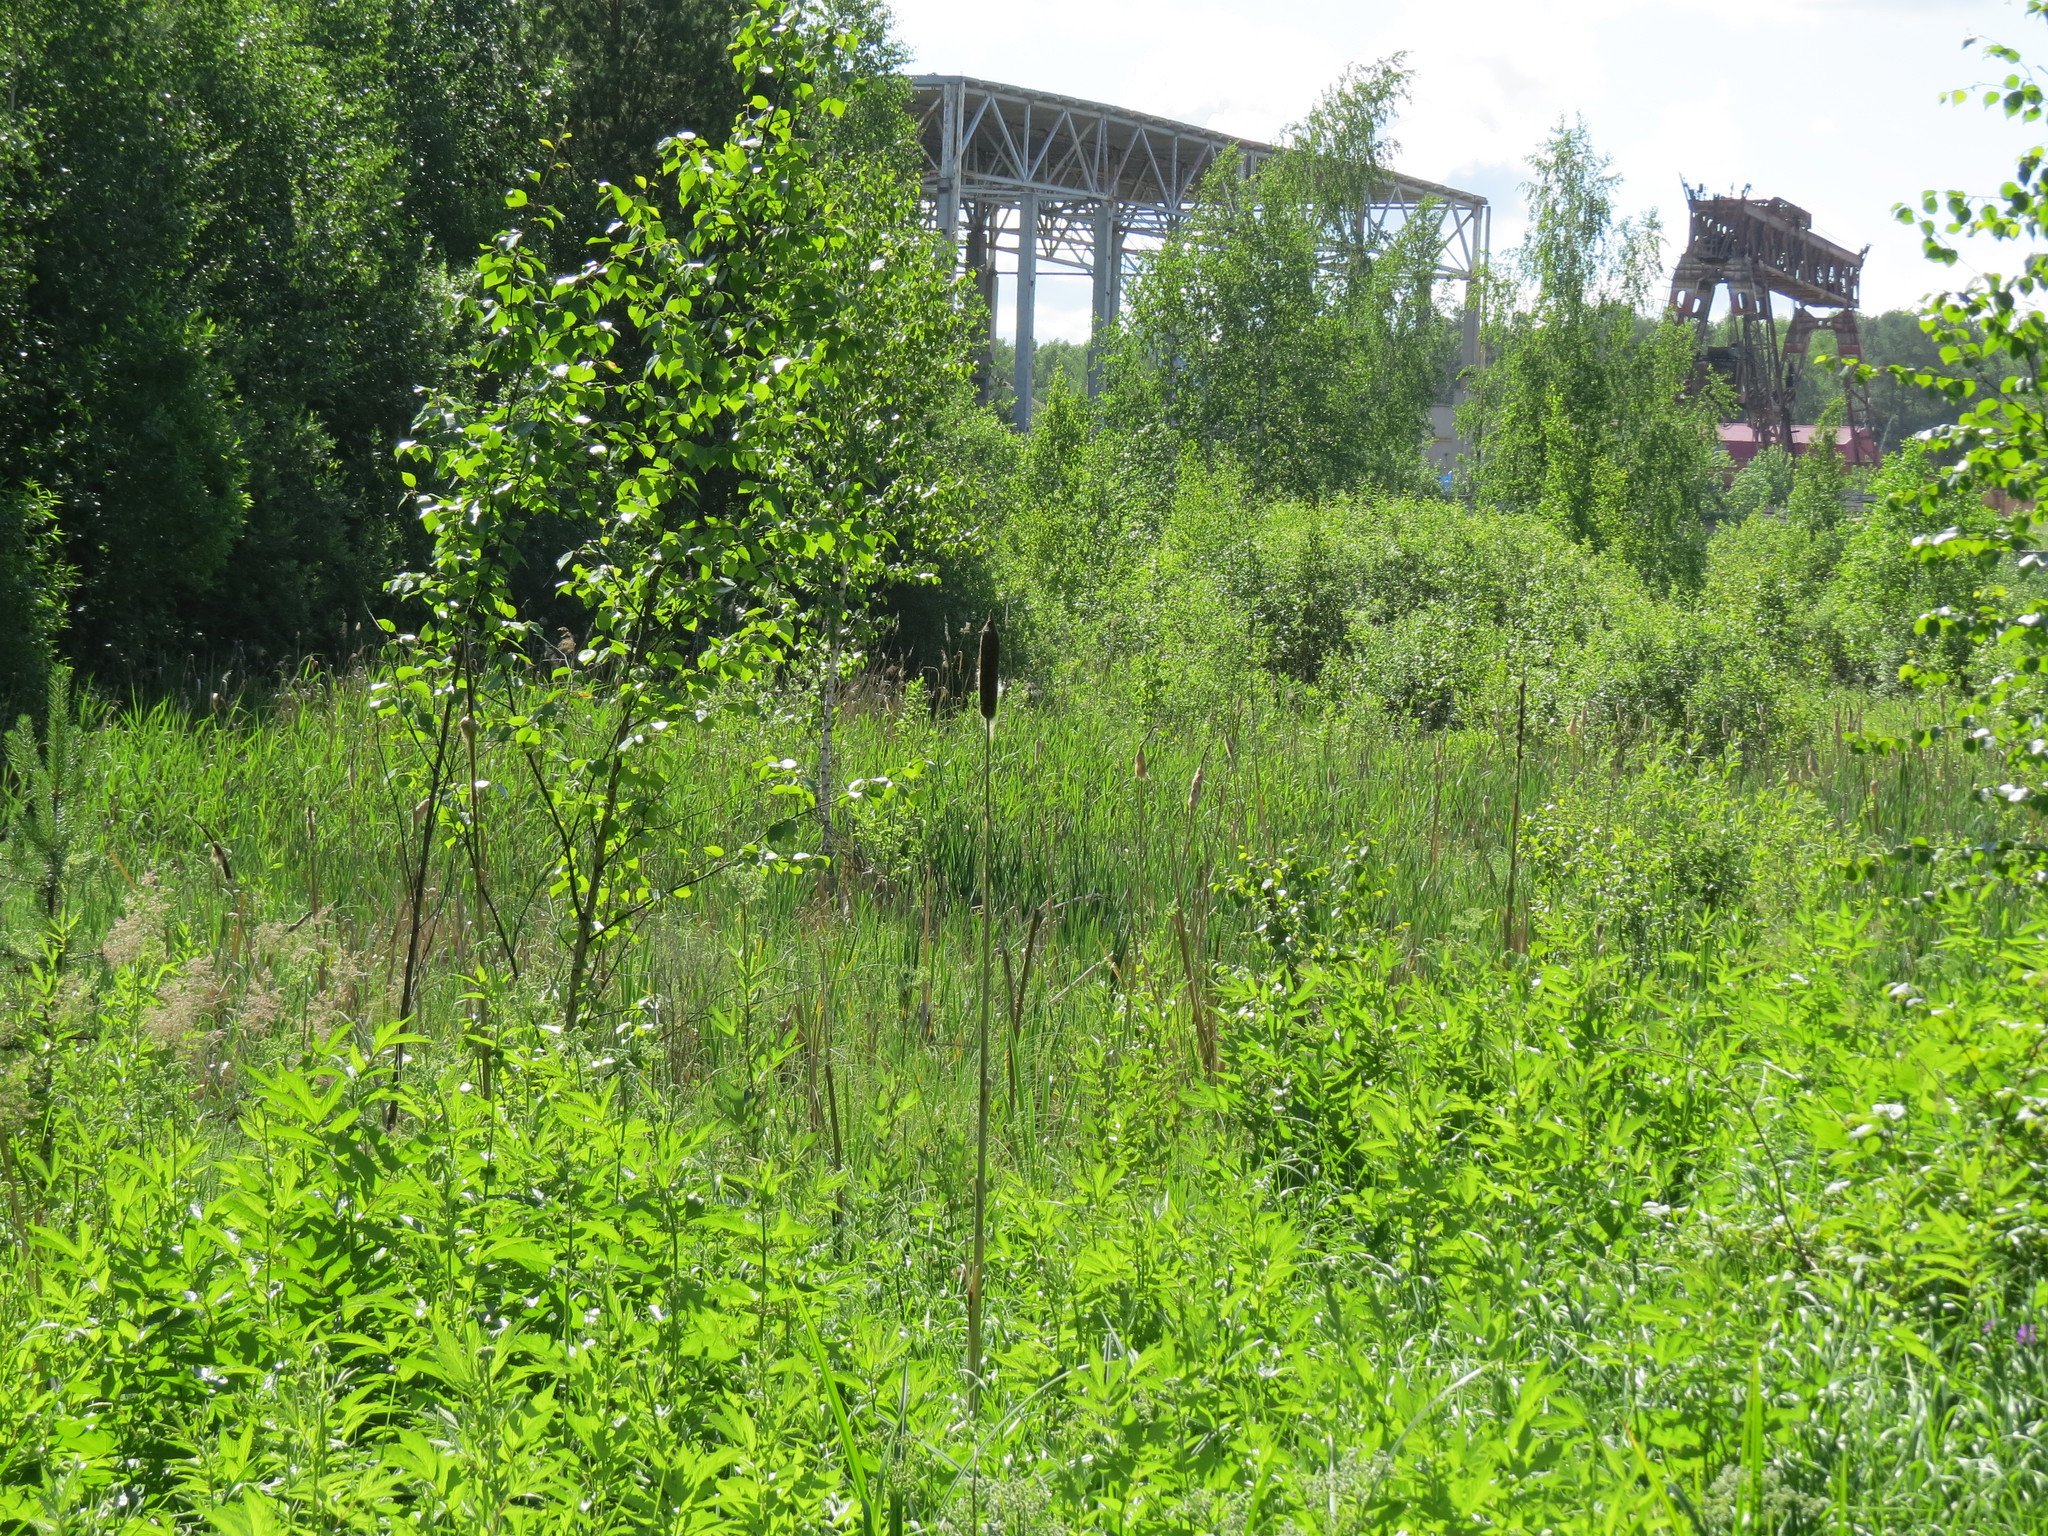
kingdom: Plantae
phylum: Tracheophyta
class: Liliopsida
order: Poales
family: Typhaceae
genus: Typha
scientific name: Typha latifolia
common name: Broadleaf cattail
